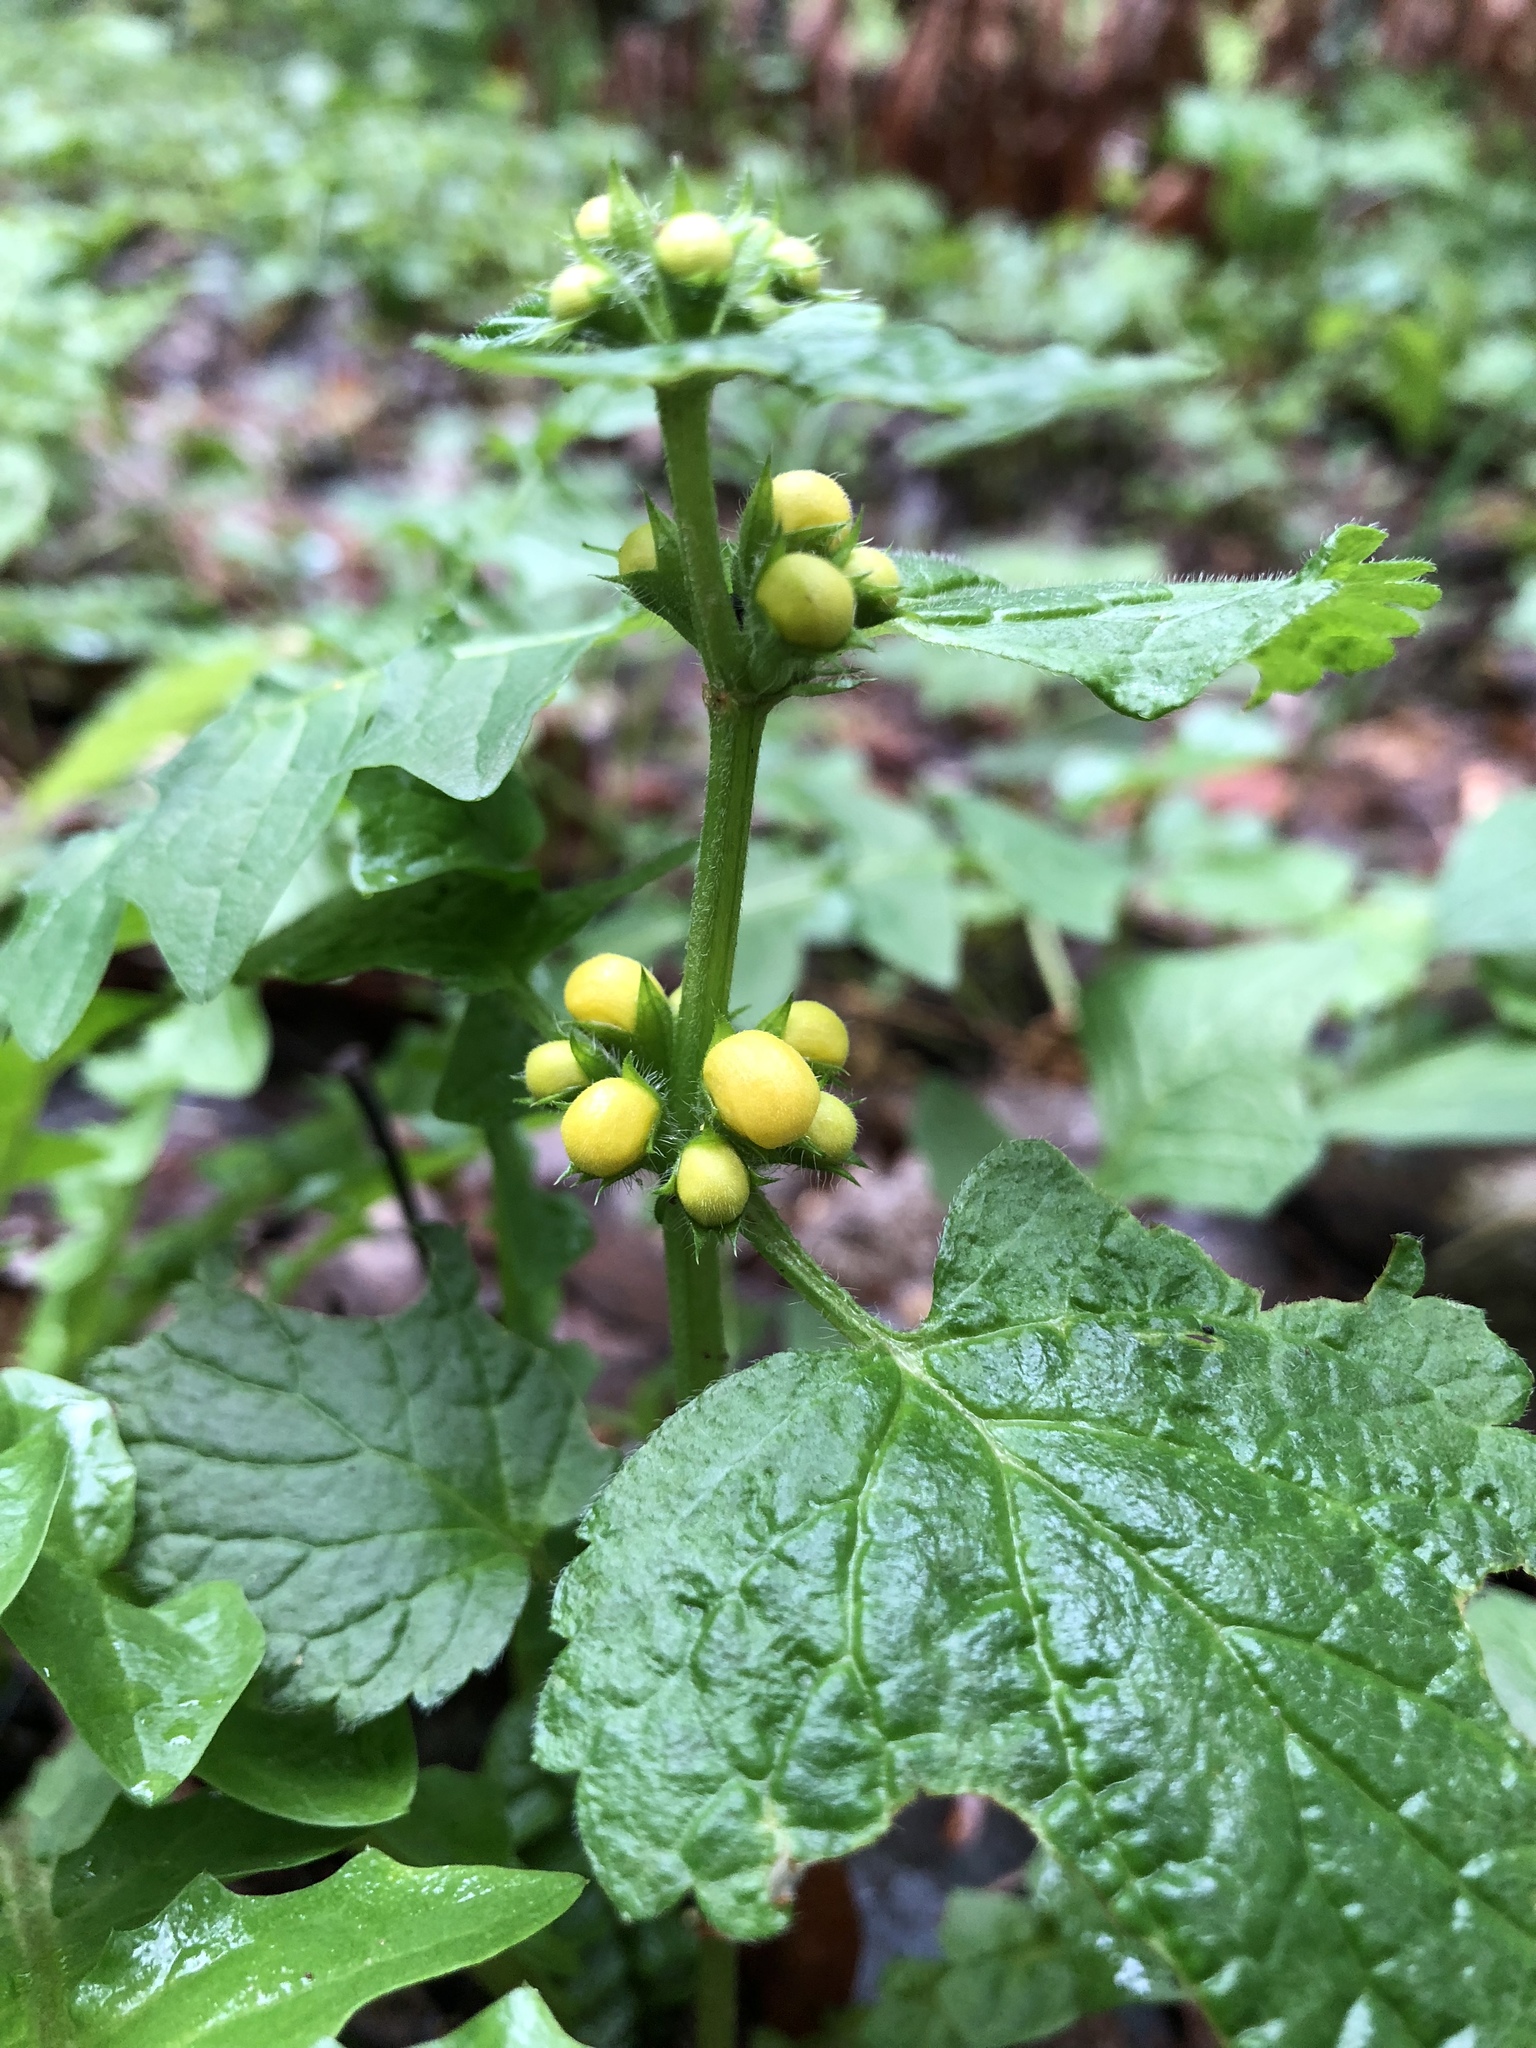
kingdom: Plantae
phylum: Tracheophyta
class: Magnoliopsida
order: Lamiales
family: Lamiaceae
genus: Lamium
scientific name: Lamium galeobdolon
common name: Yellow archangel
